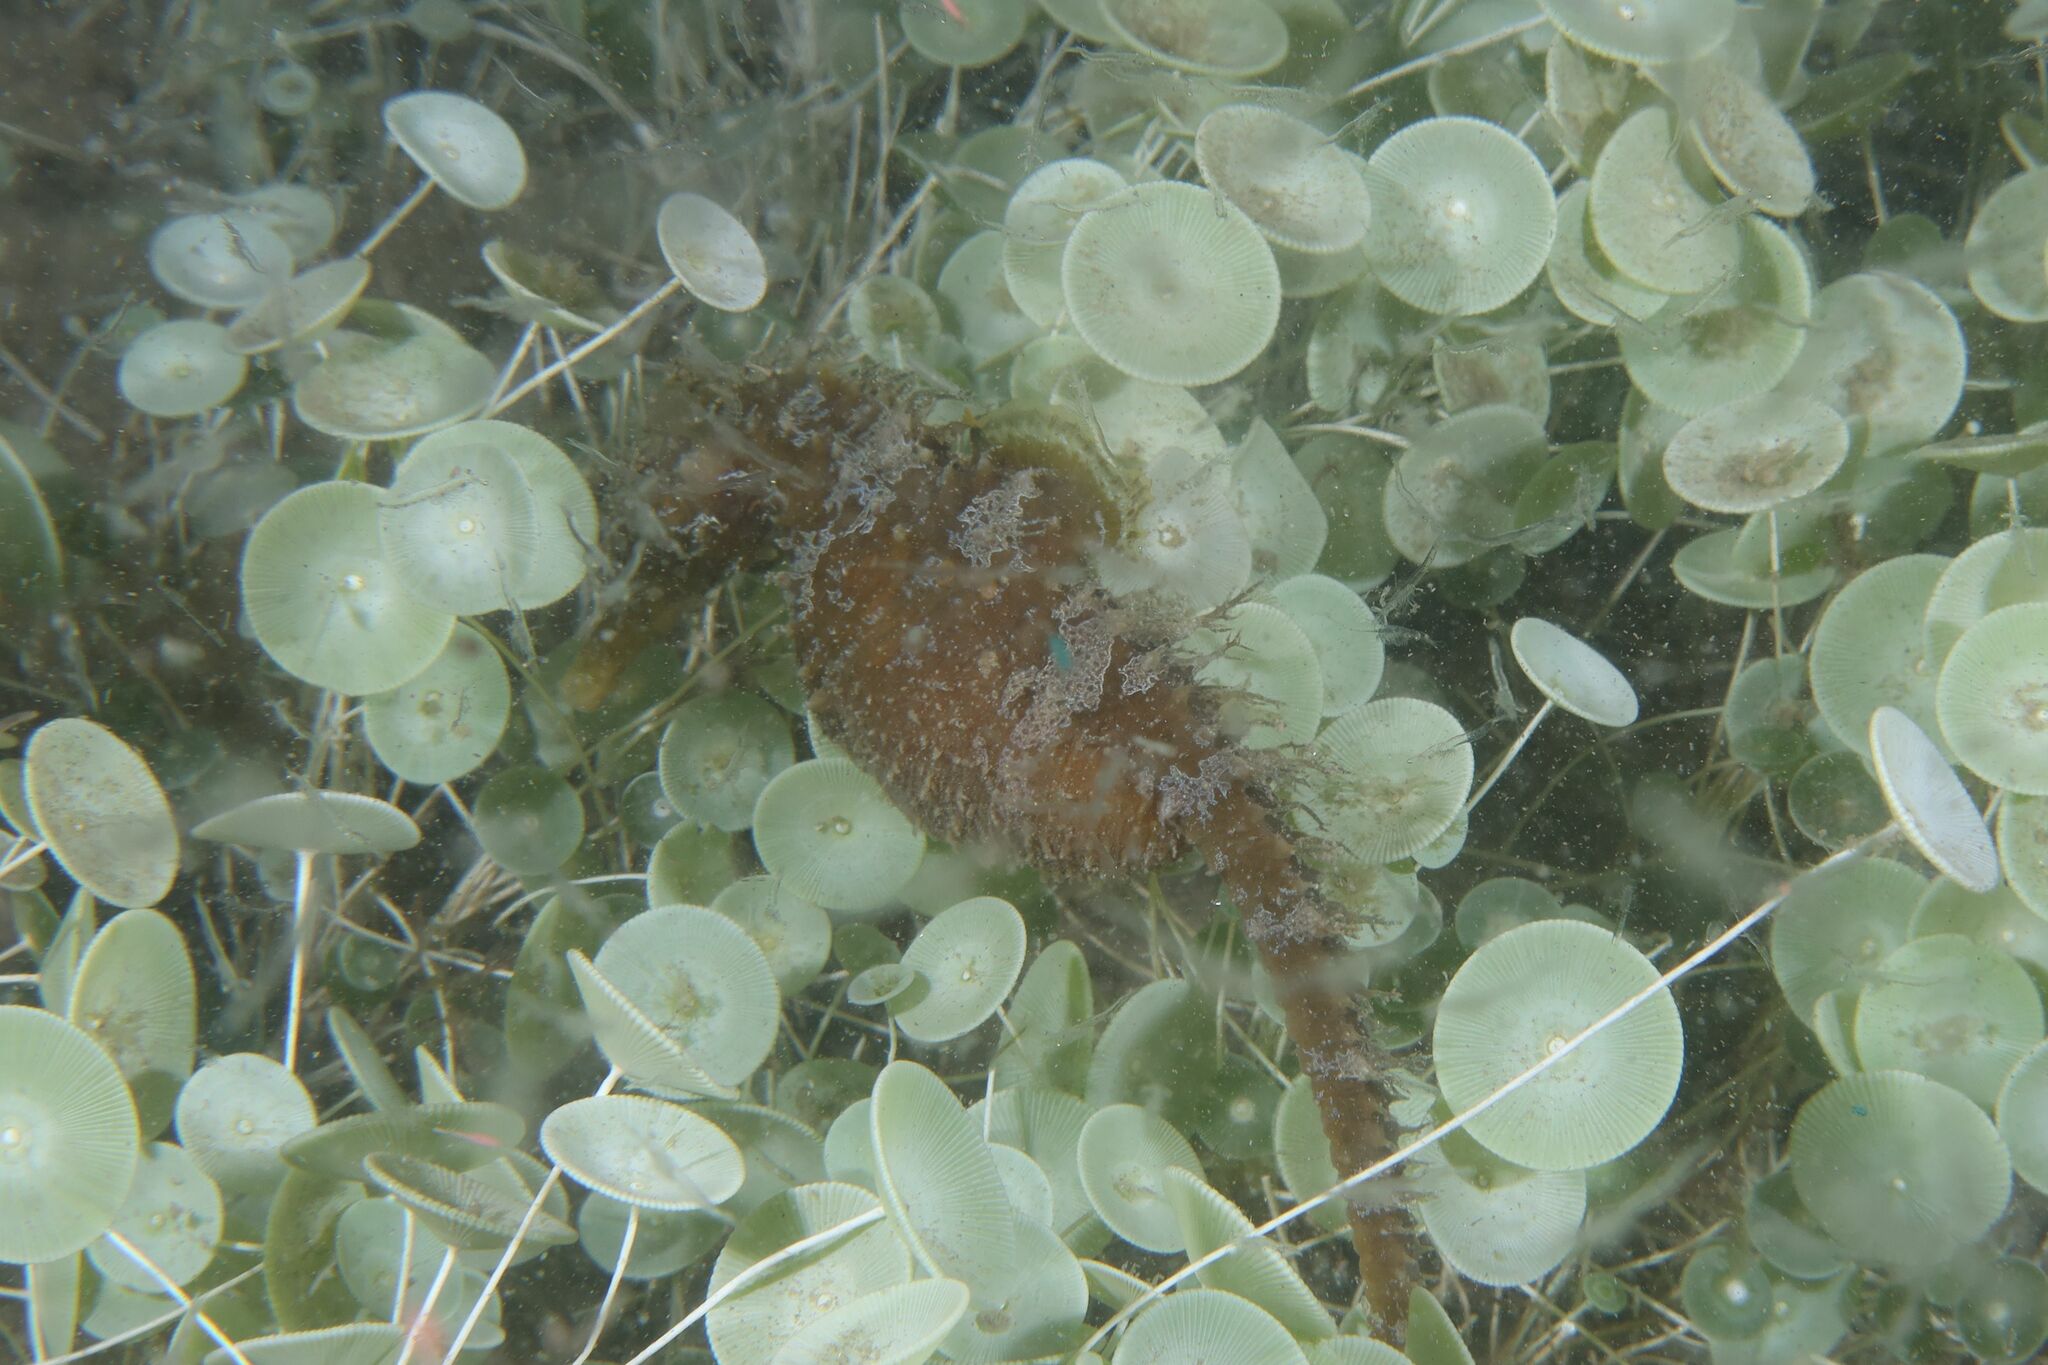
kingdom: Animalia
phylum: Chordata
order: Syngnathiformes
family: Syngnathidae
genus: Hippocampus
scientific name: Hippocampus hippocampus
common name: Short-snouted seahorse
